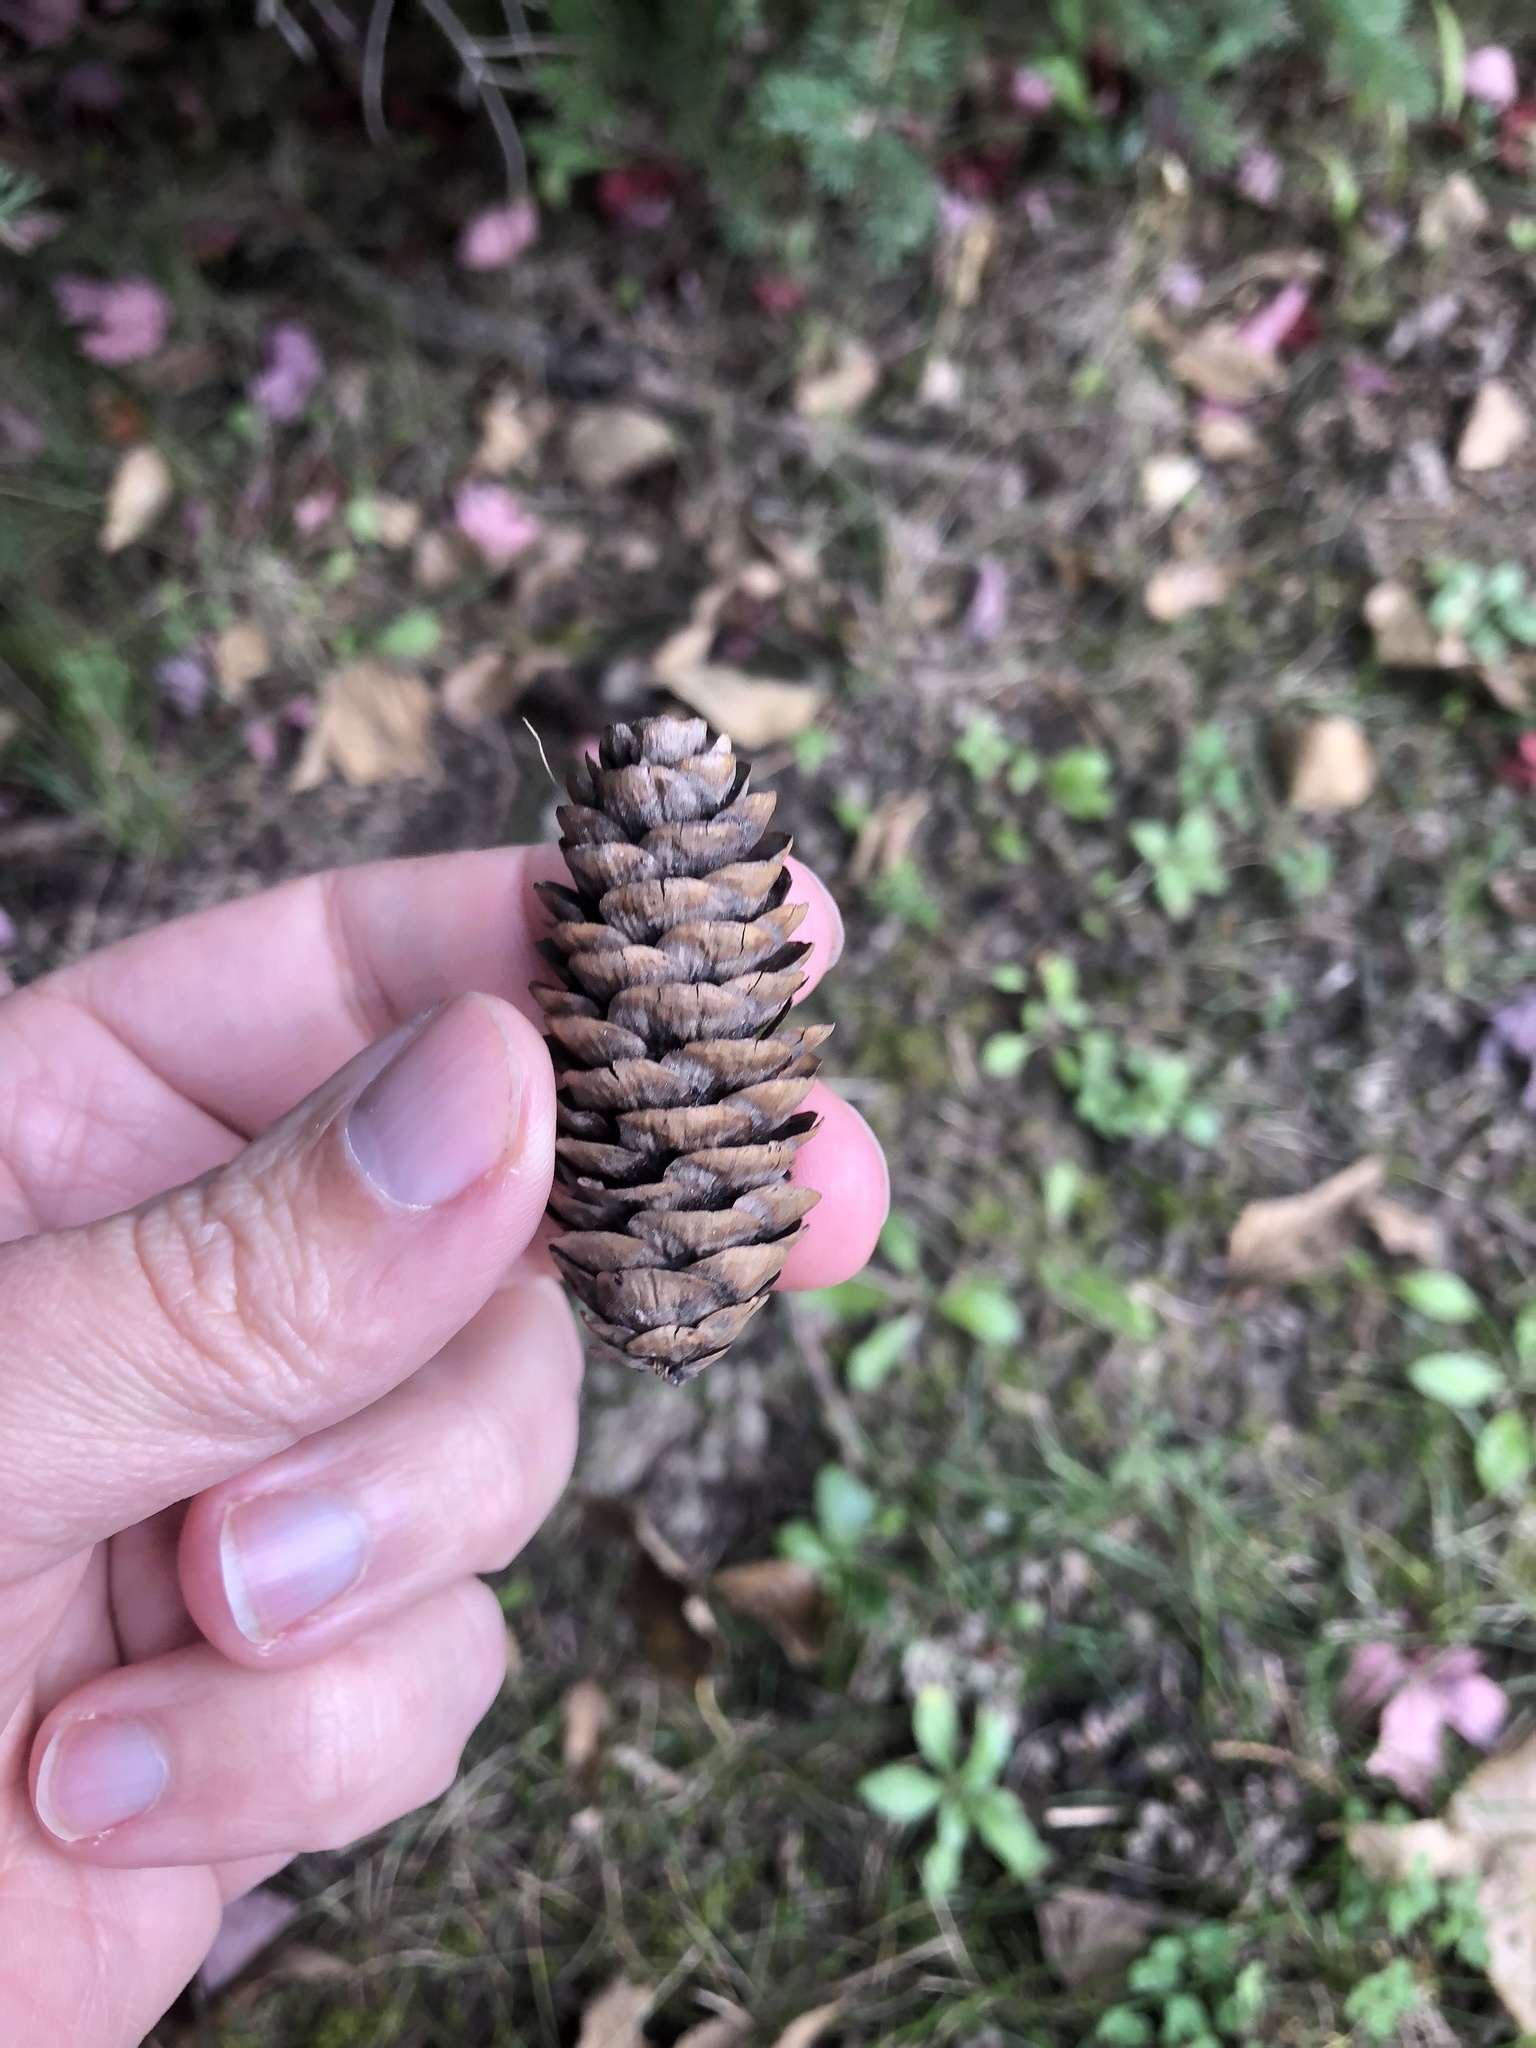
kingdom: Plantae
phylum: Tracheophyta
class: Pinopsida
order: Pinales
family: Pinaceae
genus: Picea
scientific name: Picea glauca
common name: White spruce
